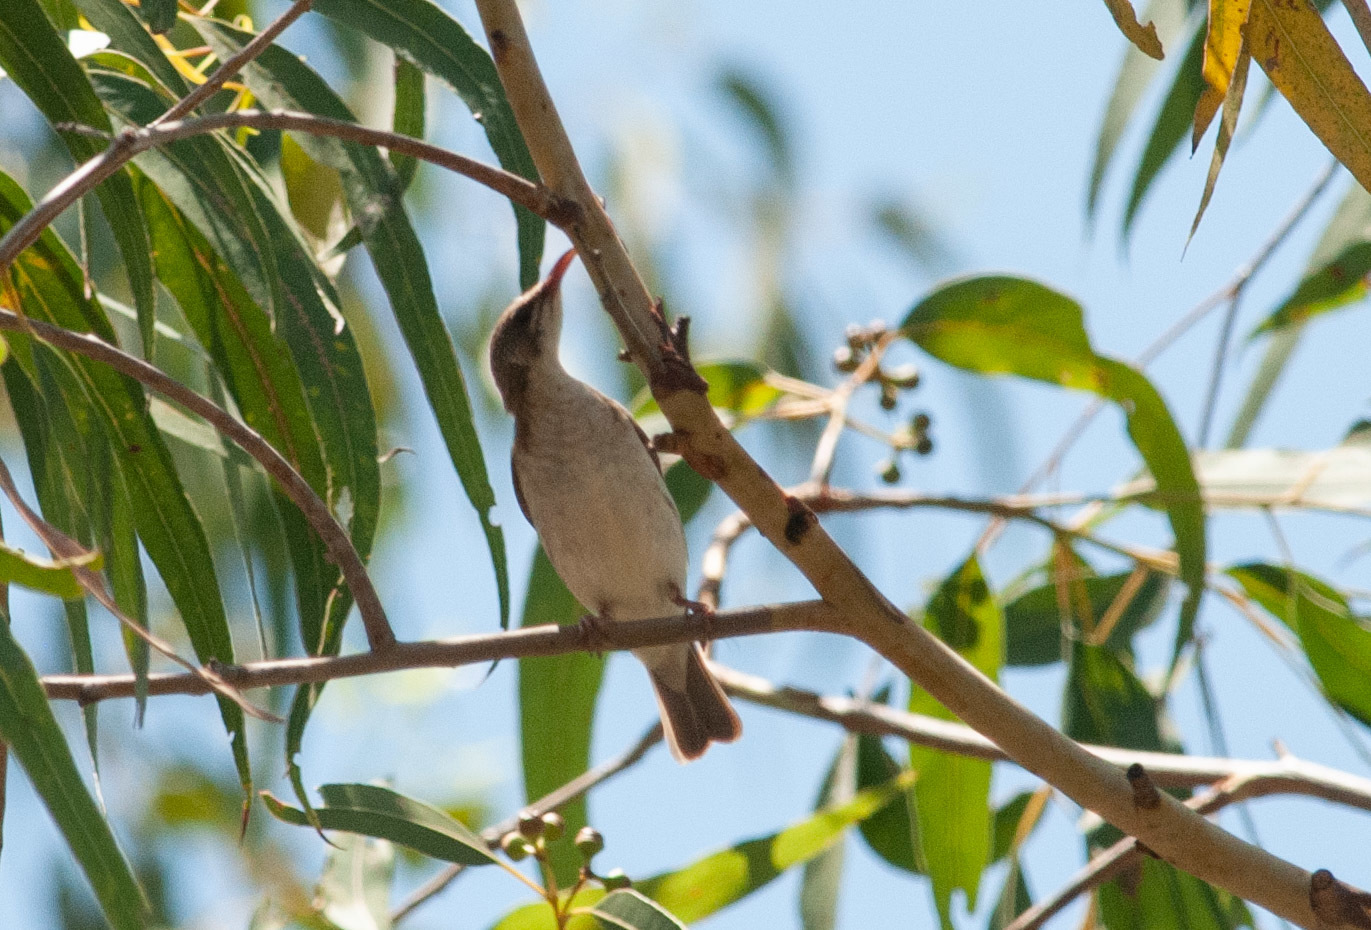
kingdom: Animalia
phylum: Chordata
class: Aves
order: Passeriformes
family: Meliphagidae
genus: Ramsayornis
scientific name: Ramsayornis modestus
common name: Brown-backed honeyeater
